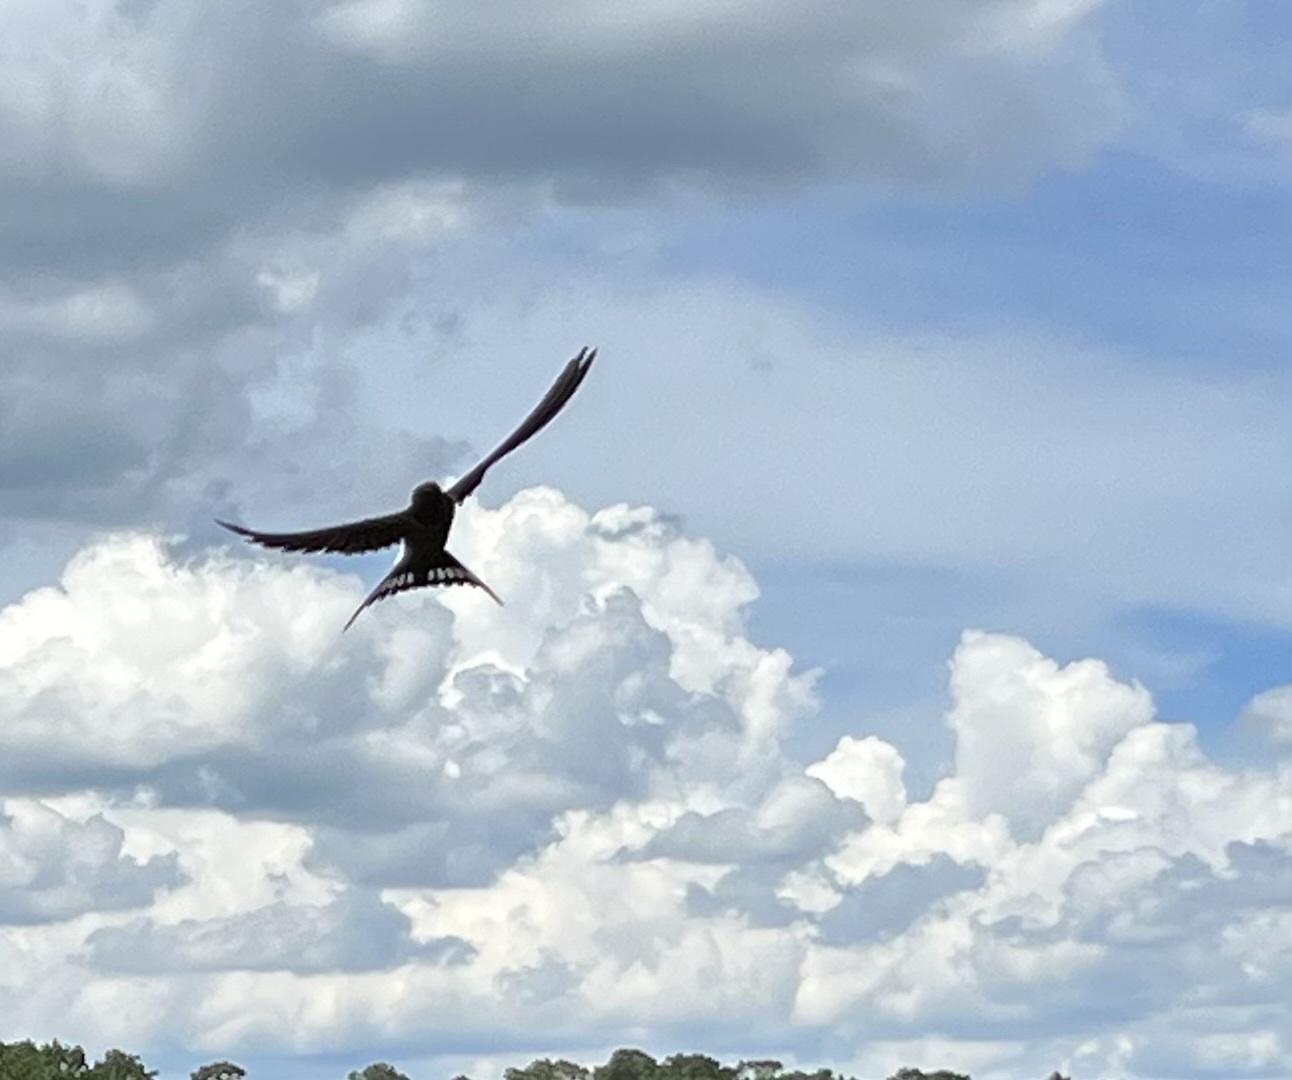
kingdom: Animalia
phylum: Chordata
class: Aves
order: Passeriformes
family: Hirundinidae
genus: Hirundo
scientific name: Hirundo rustica
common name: Barn swallow
